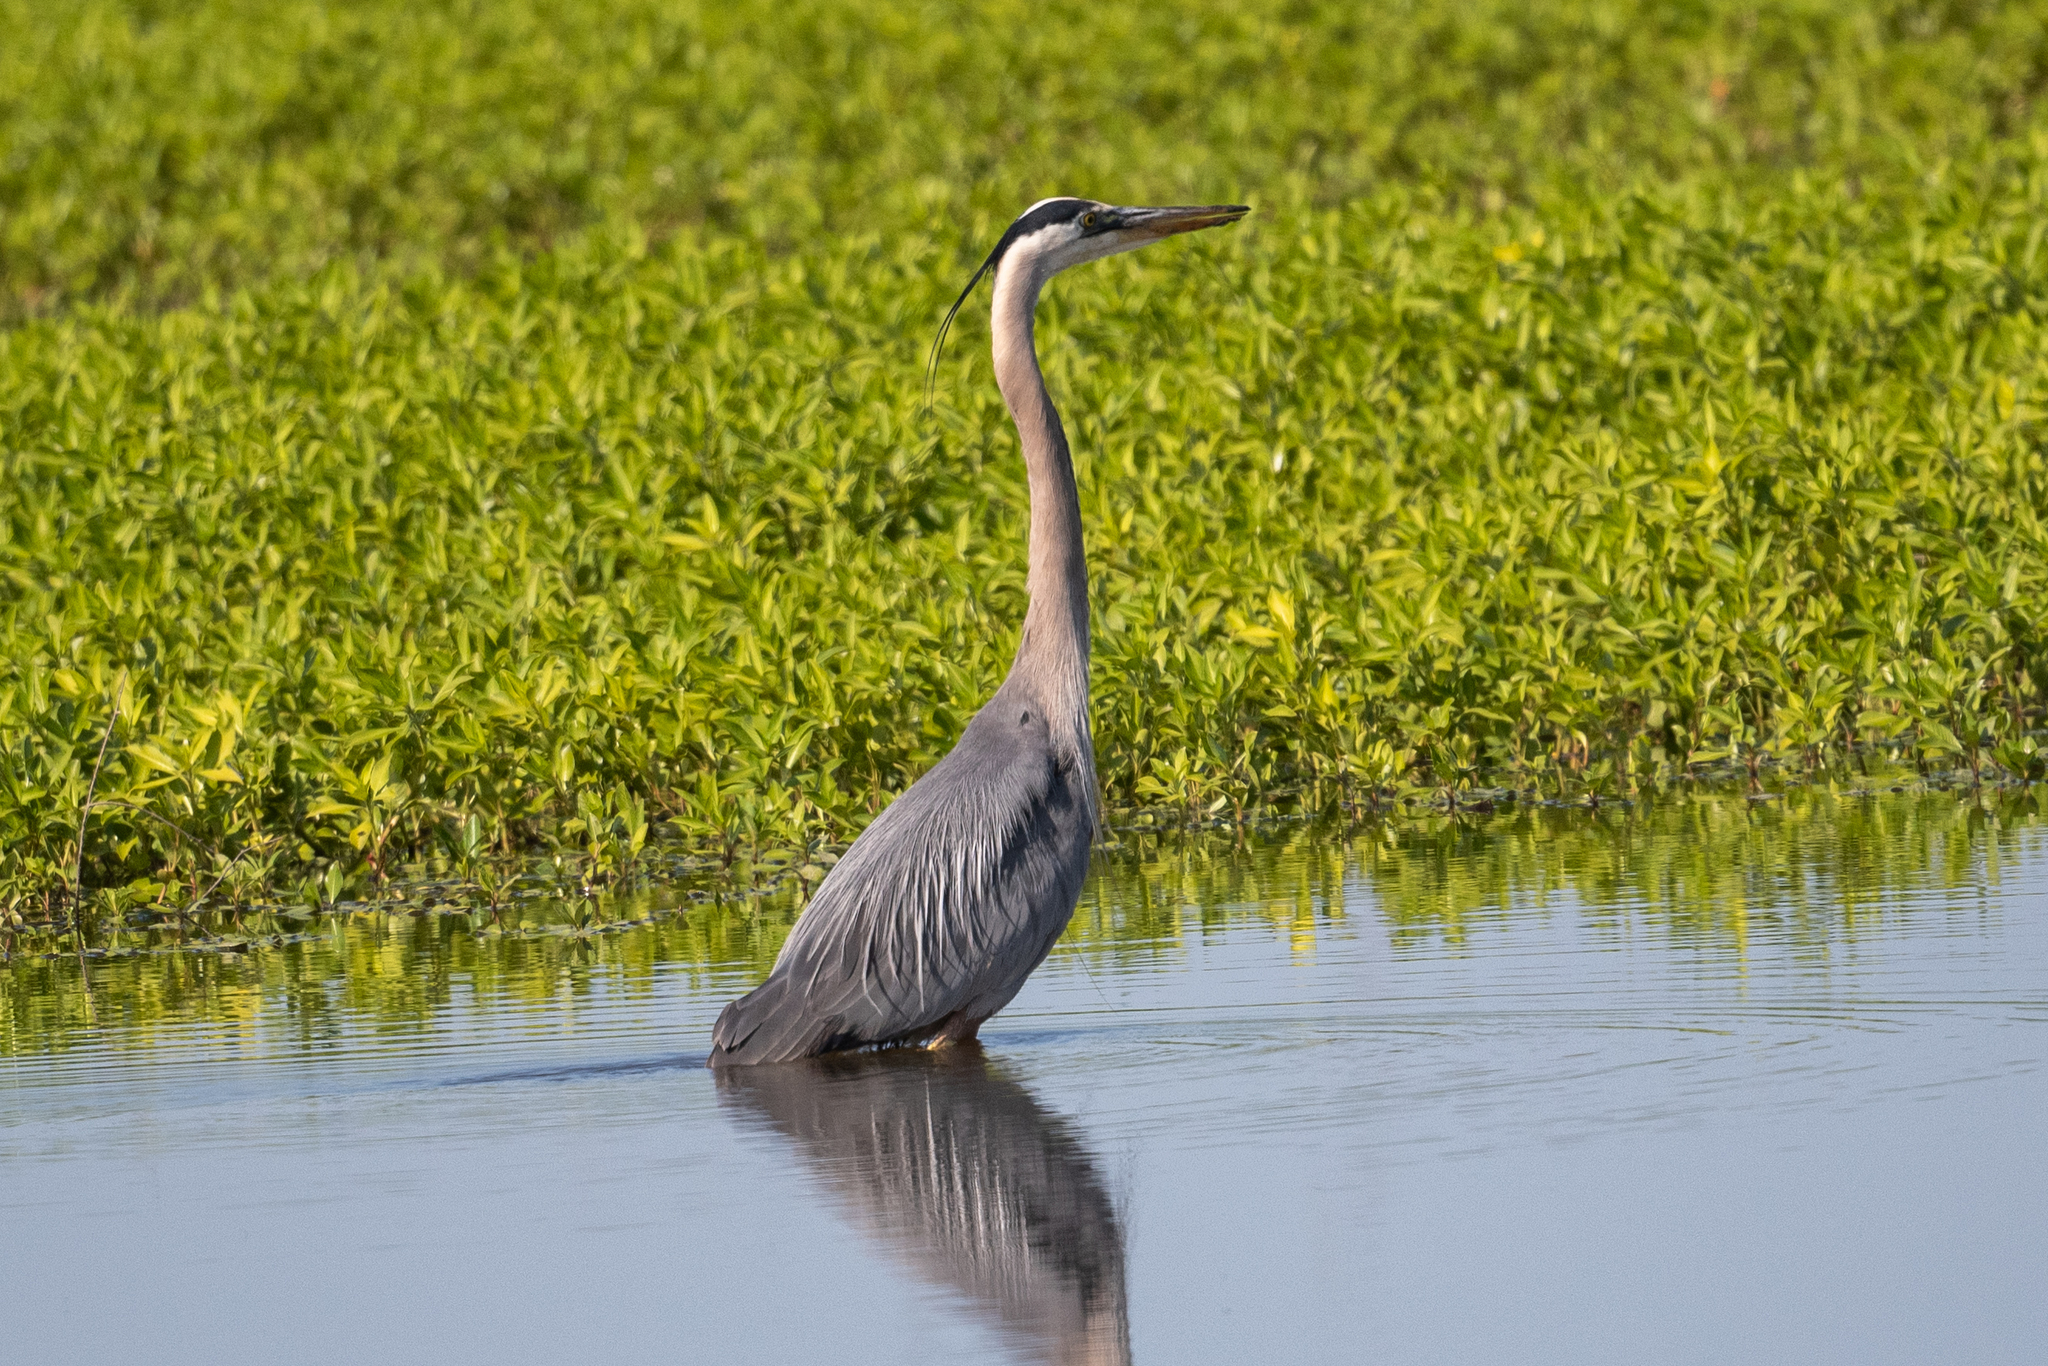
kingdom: Animalia
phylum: Chordata
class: Aves
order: Pelecaniformes
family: Ardeidae
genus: Ardea
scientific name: Ardea herodias
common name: Great blue heron
